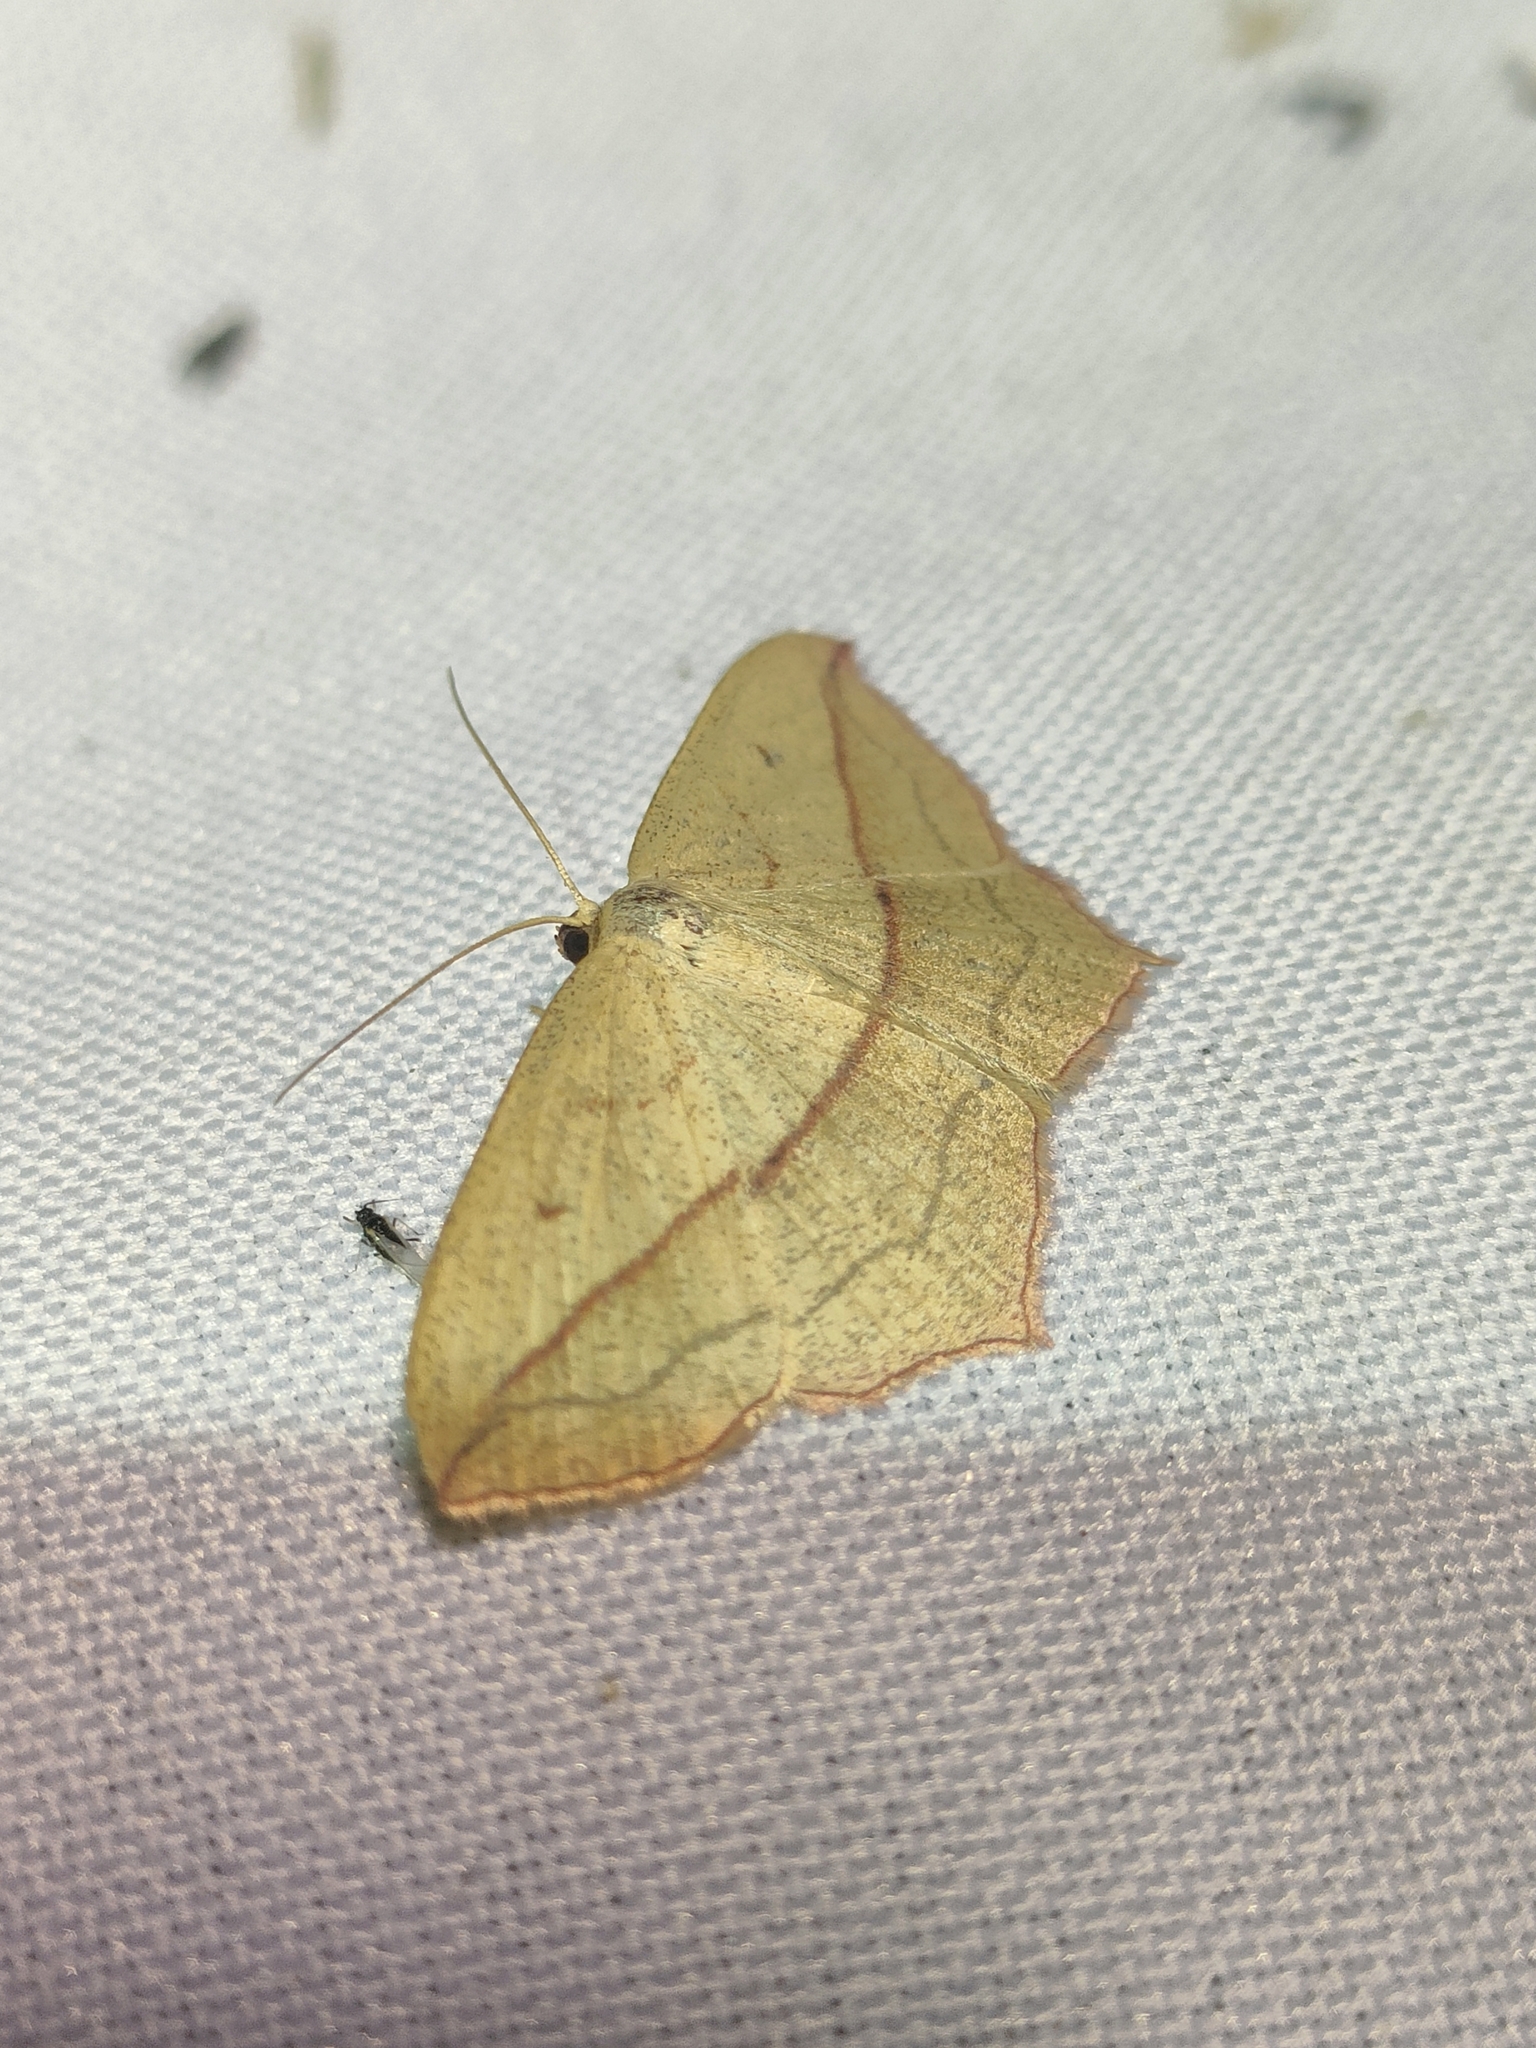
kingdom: Animalia
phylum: Arthropoda
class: Insecta
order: Lepidoptera
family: Geometridae
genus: Timandra
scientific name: Timandra comae
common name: Blood-vein
